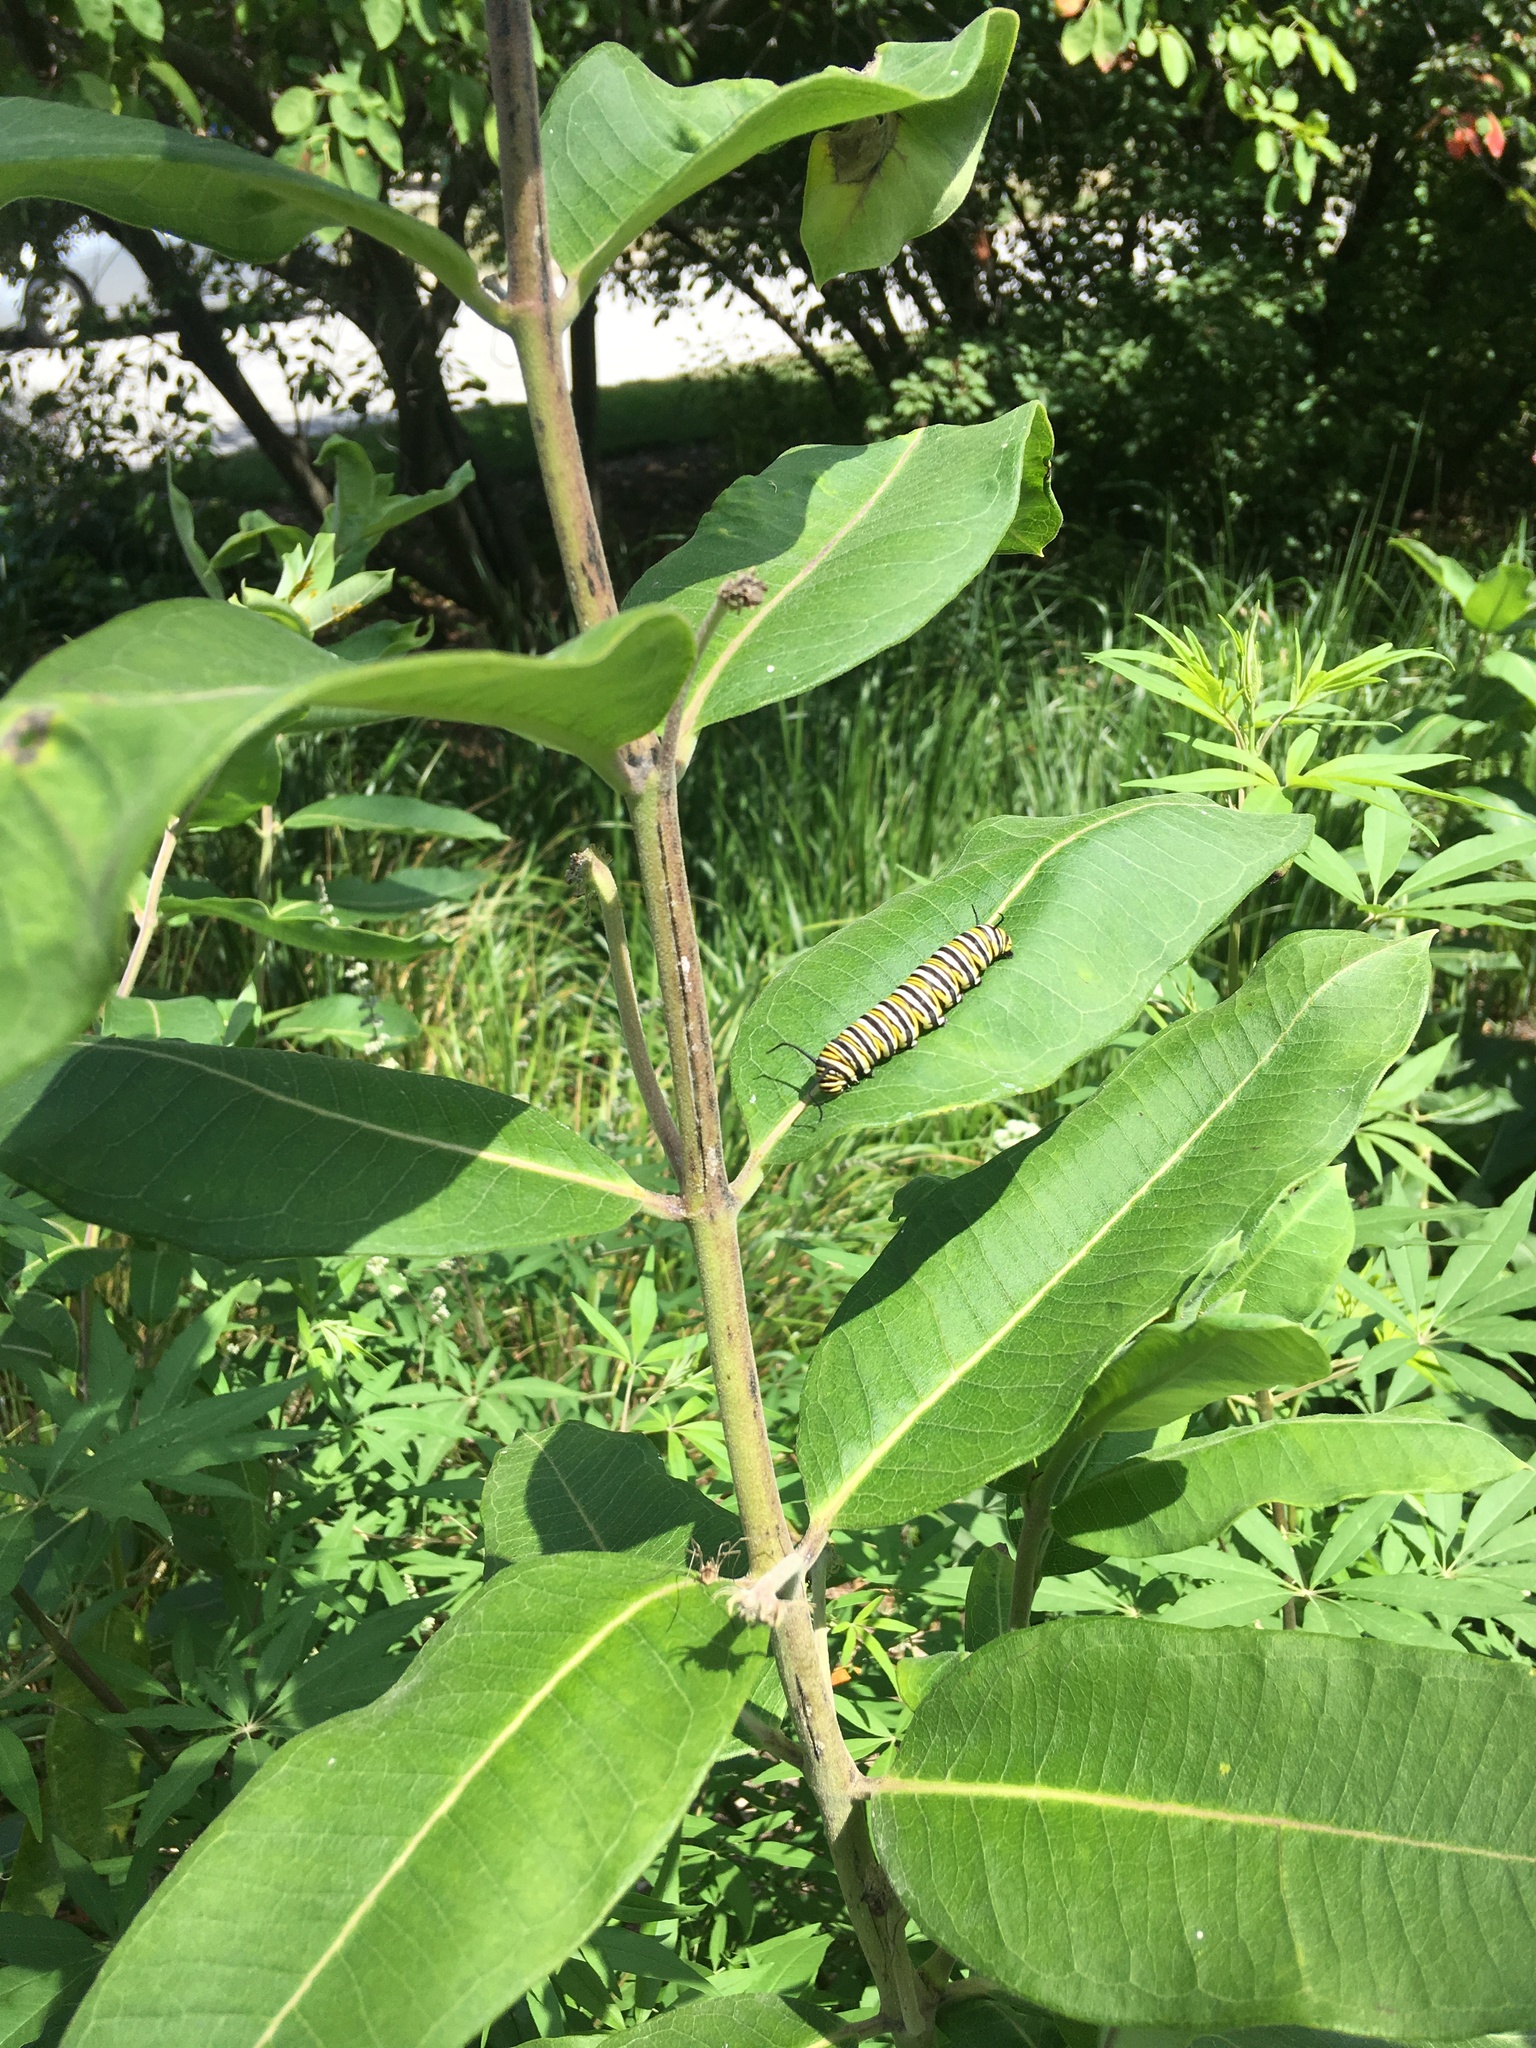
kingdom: Animalia
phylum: Arthropoda
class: Insecta
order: Lepidoptera
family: Nymphalidae
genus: Danaus
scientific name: Danaus plexippus
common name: Monarch
